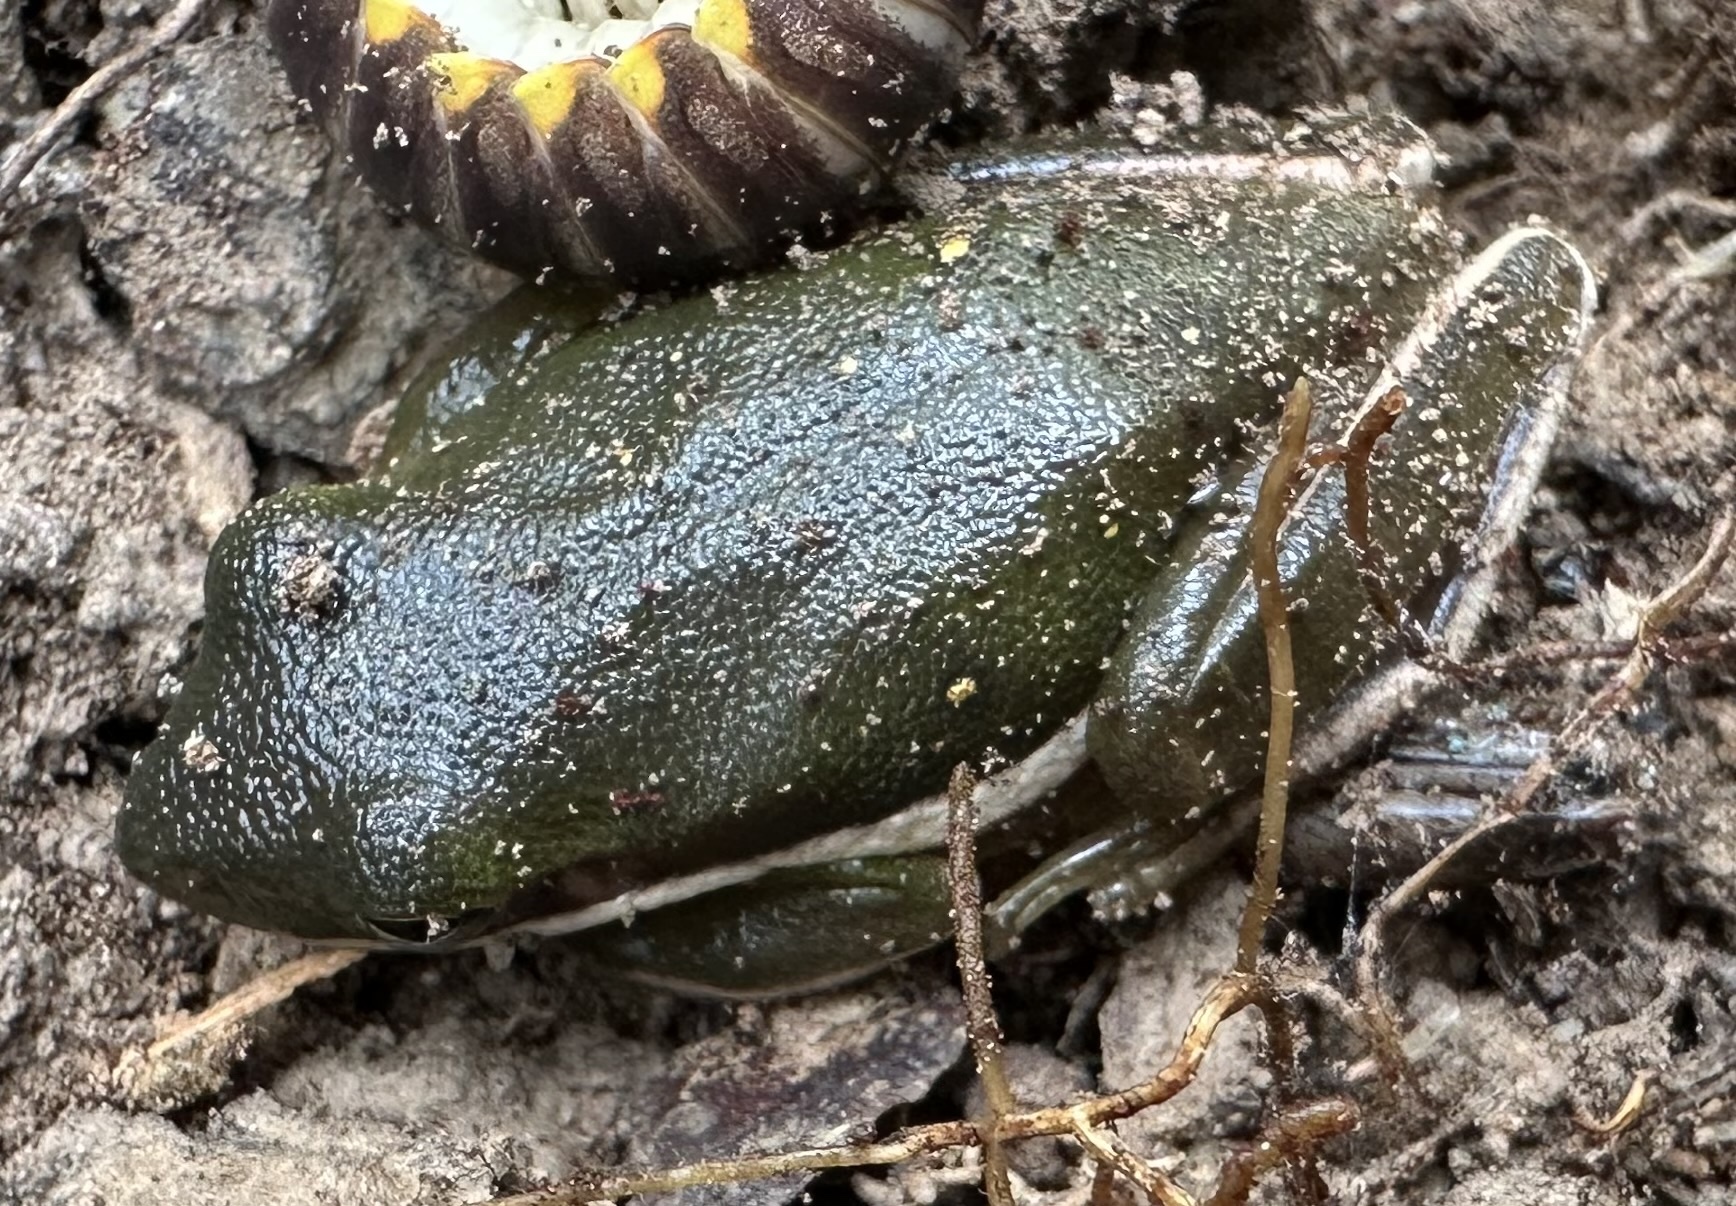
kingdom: Animalia
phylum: Chordata
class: Amphibia
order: Anura
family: Hylidae
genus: Dryophytes
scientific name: Dryophytes cinereus
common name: Green treefrog
